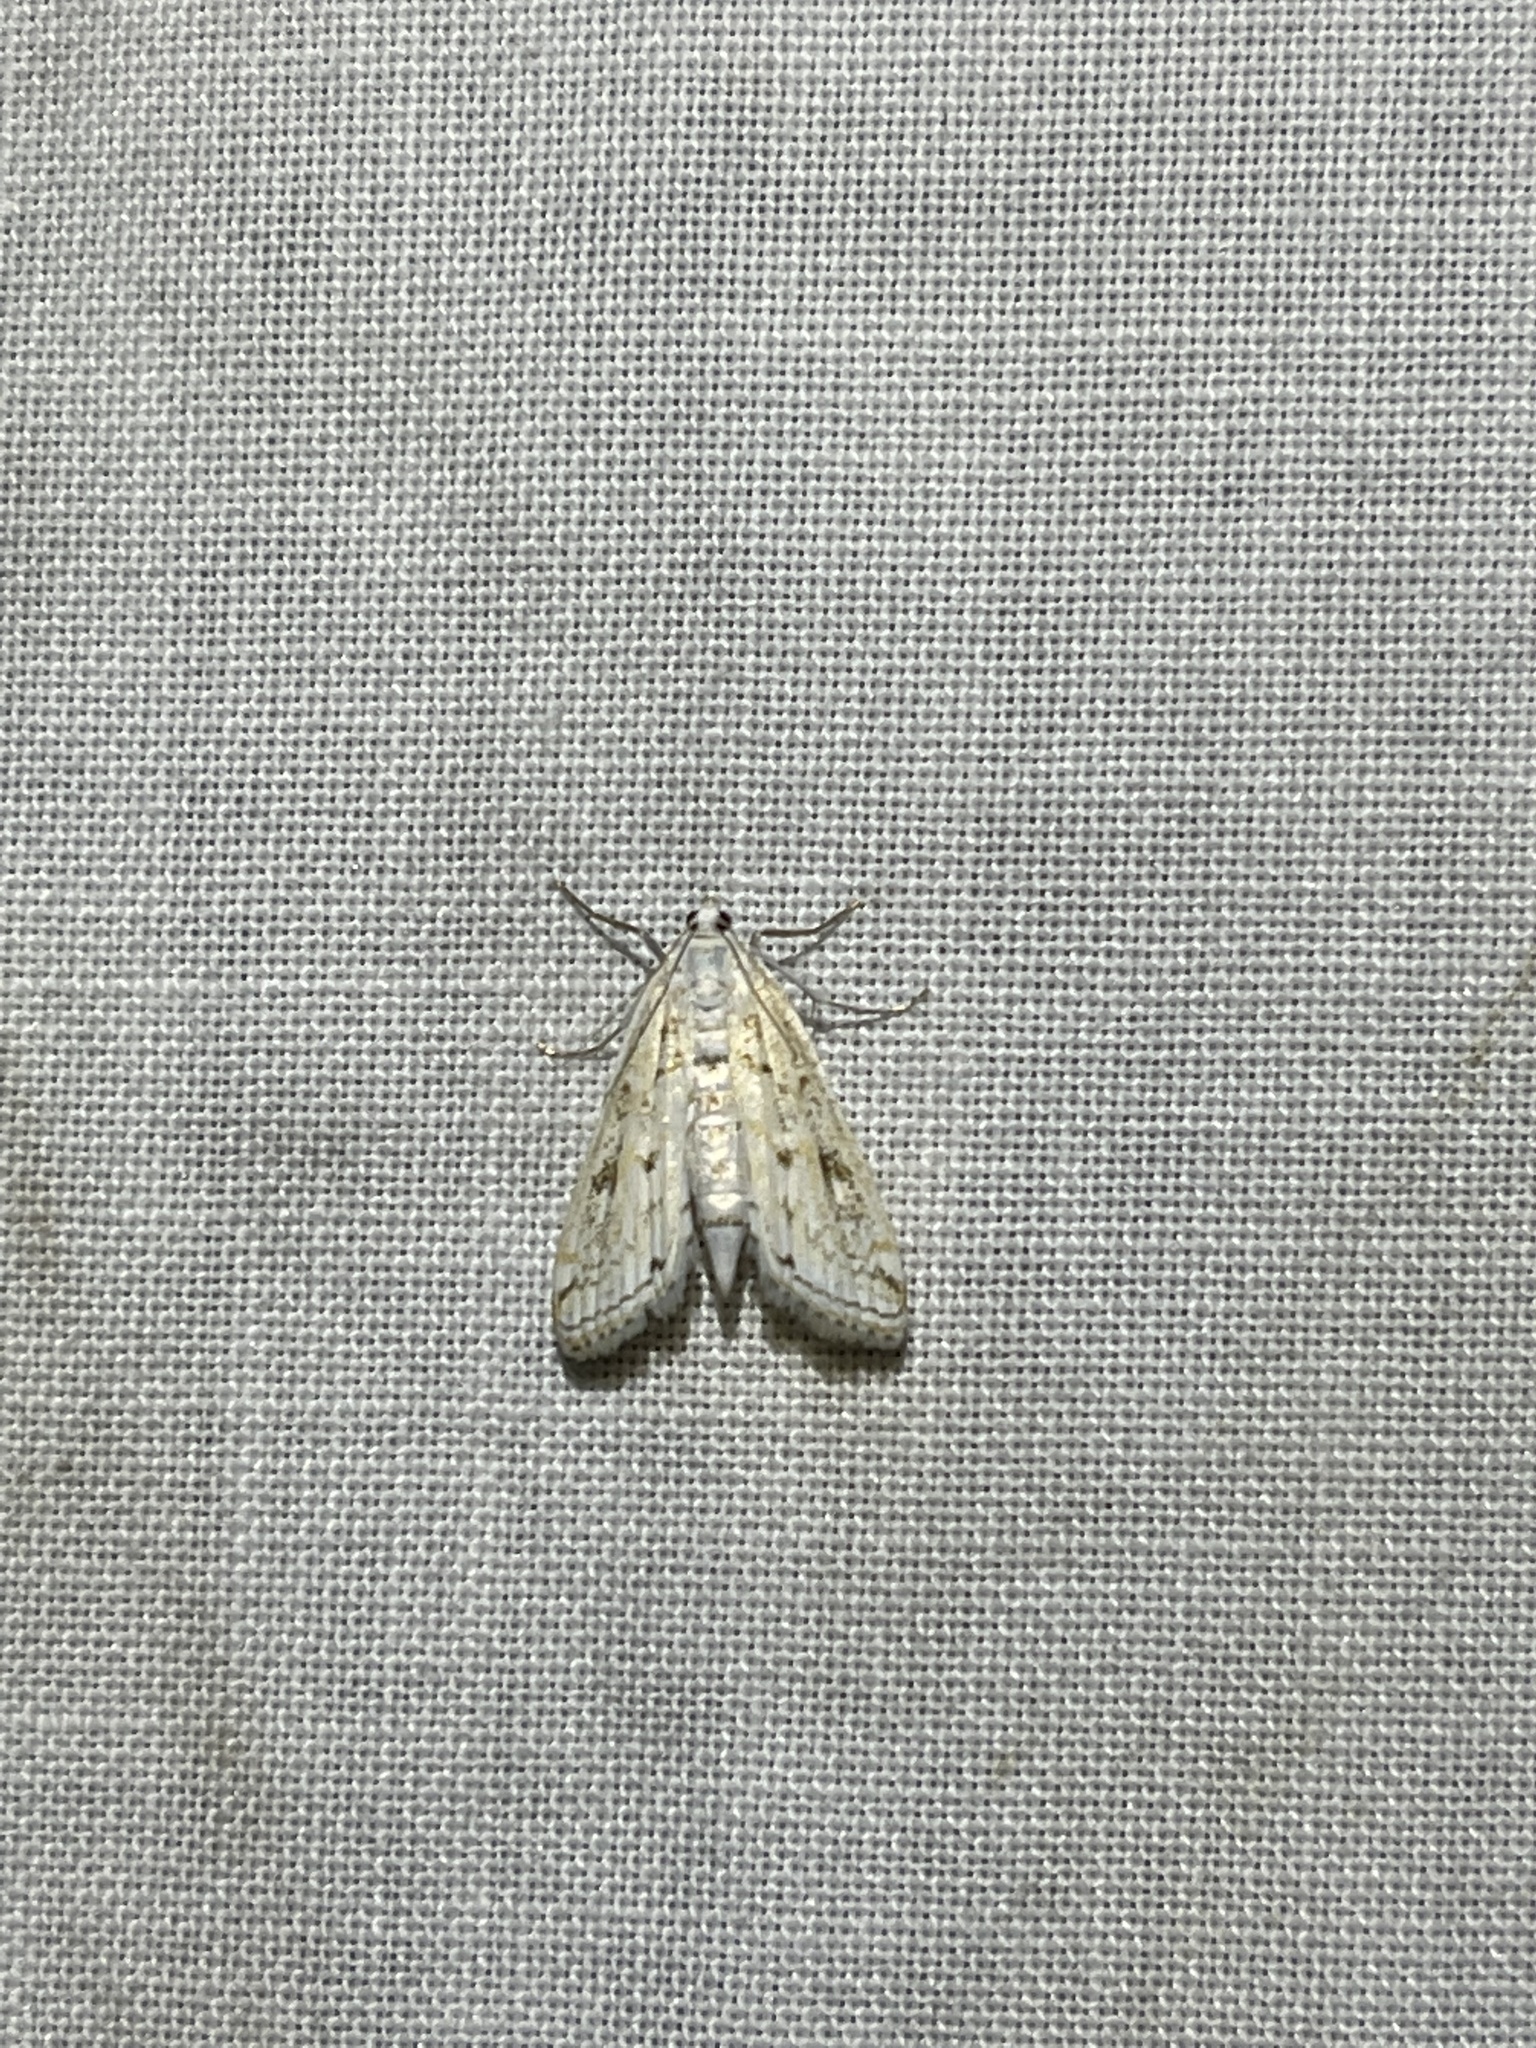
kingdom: Animalia
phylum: Arthropoda
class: Insecta
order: Lepidoptera
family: Crambidae
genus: Parapoynx
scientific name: Parapoynx allionealis
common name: Bladderwort casemaker
